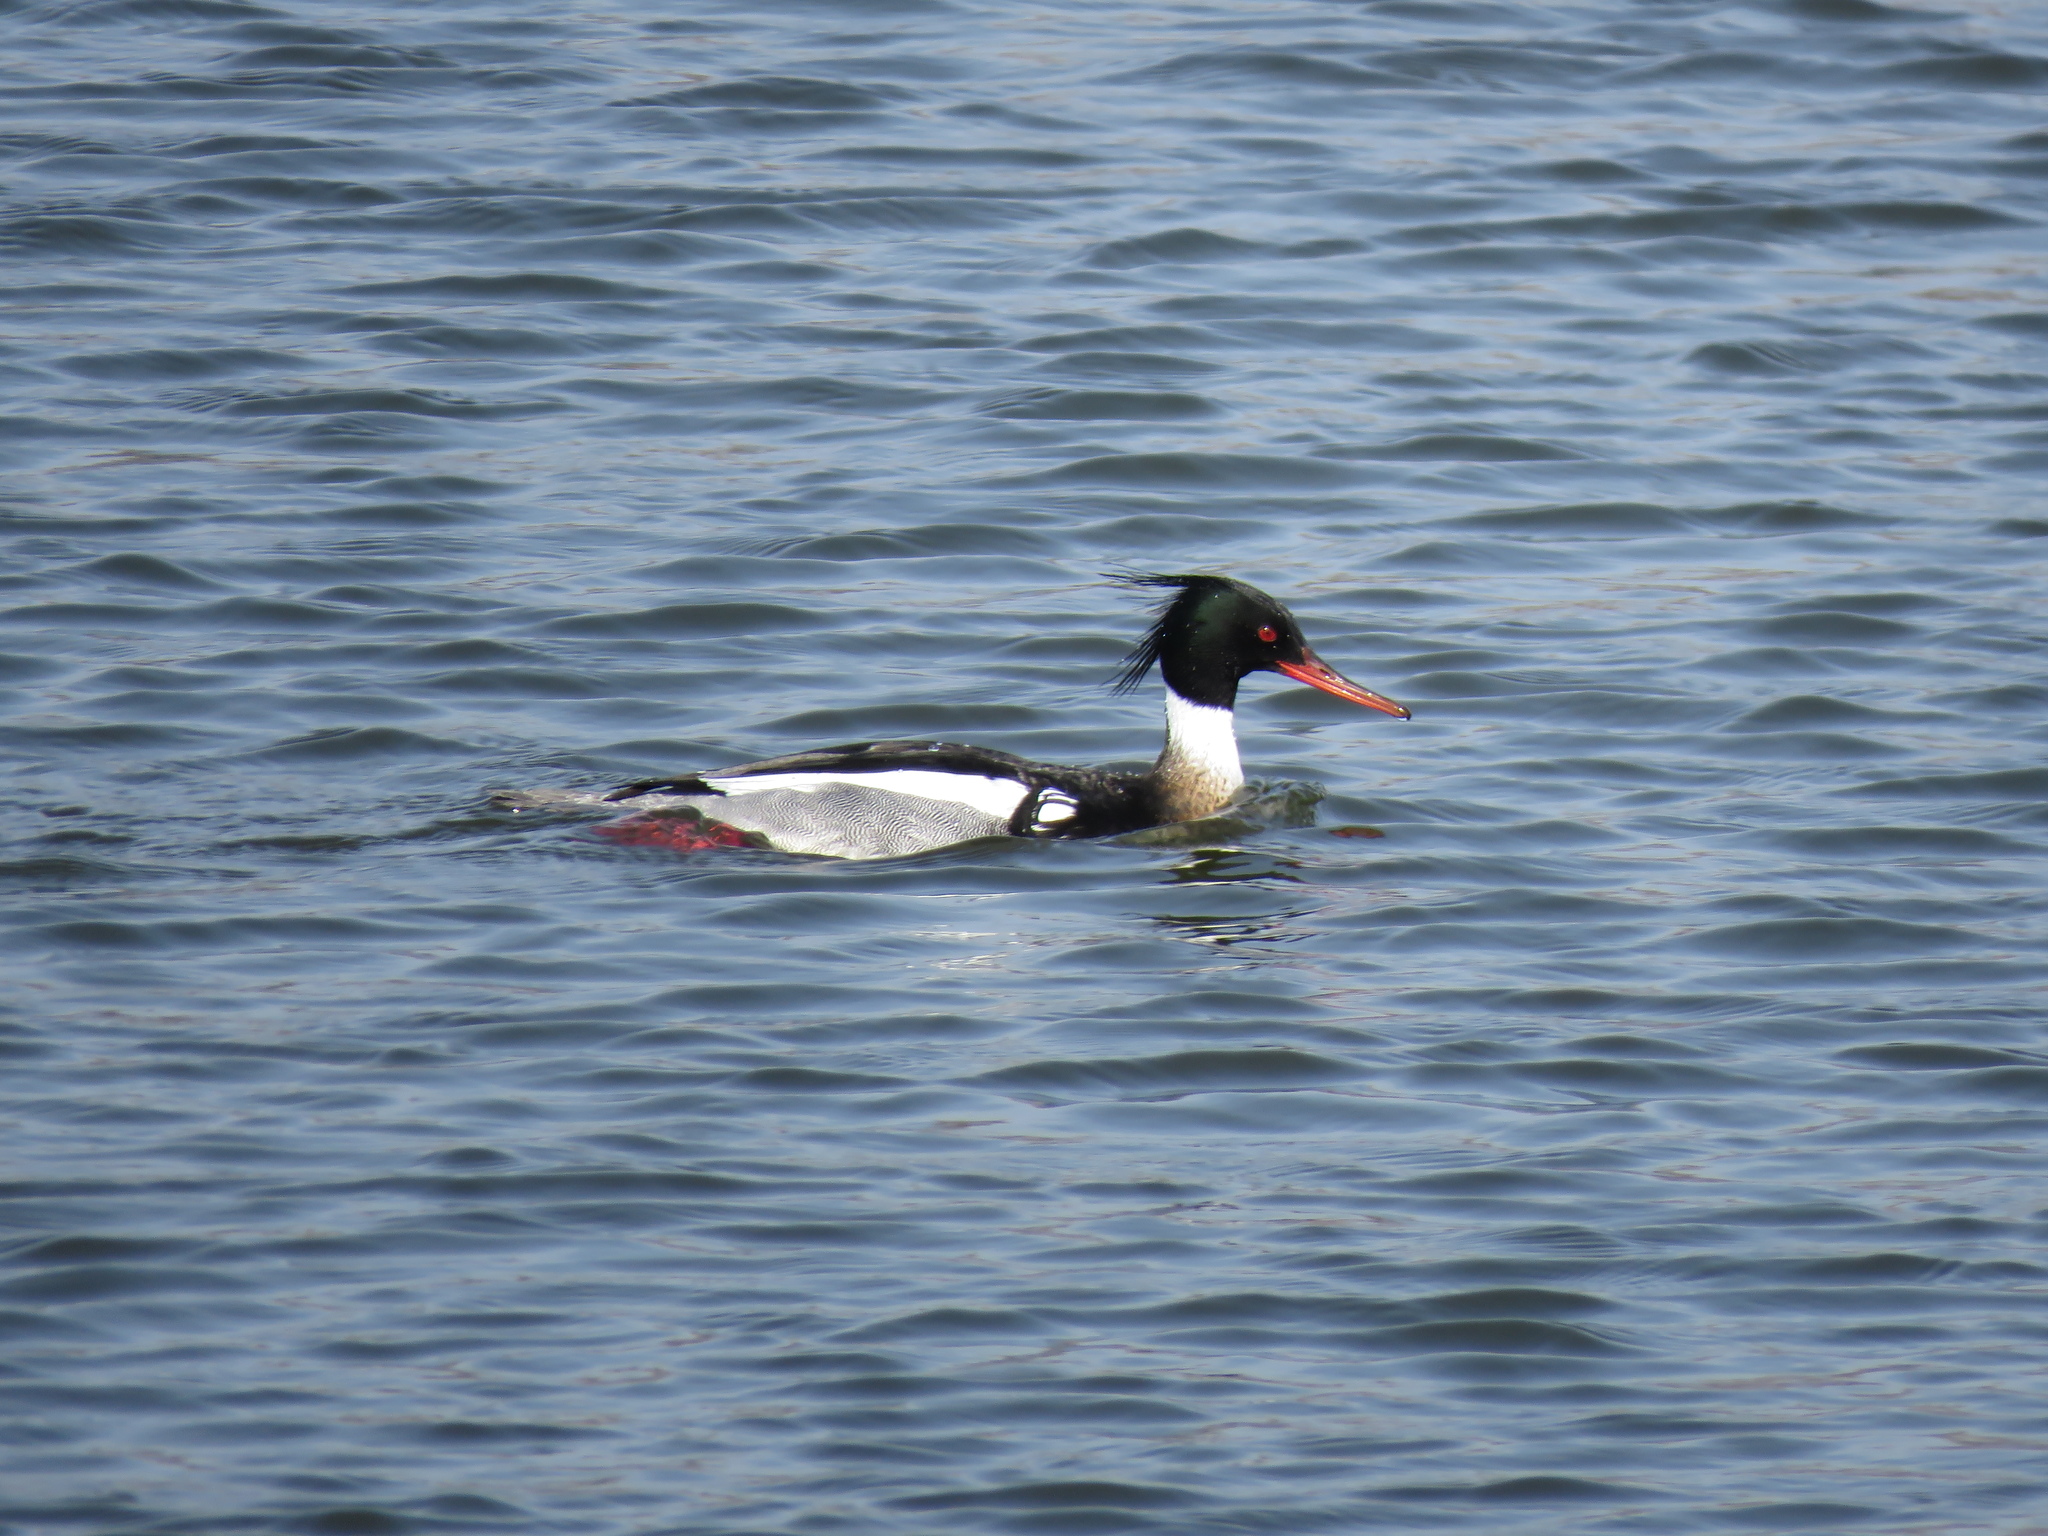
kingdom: Animalia
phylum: Chordata
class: Aves
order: Anseriformes
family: Anatidae
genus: Mergus
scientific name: Mergus serrator
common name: Red-breasted merganser
